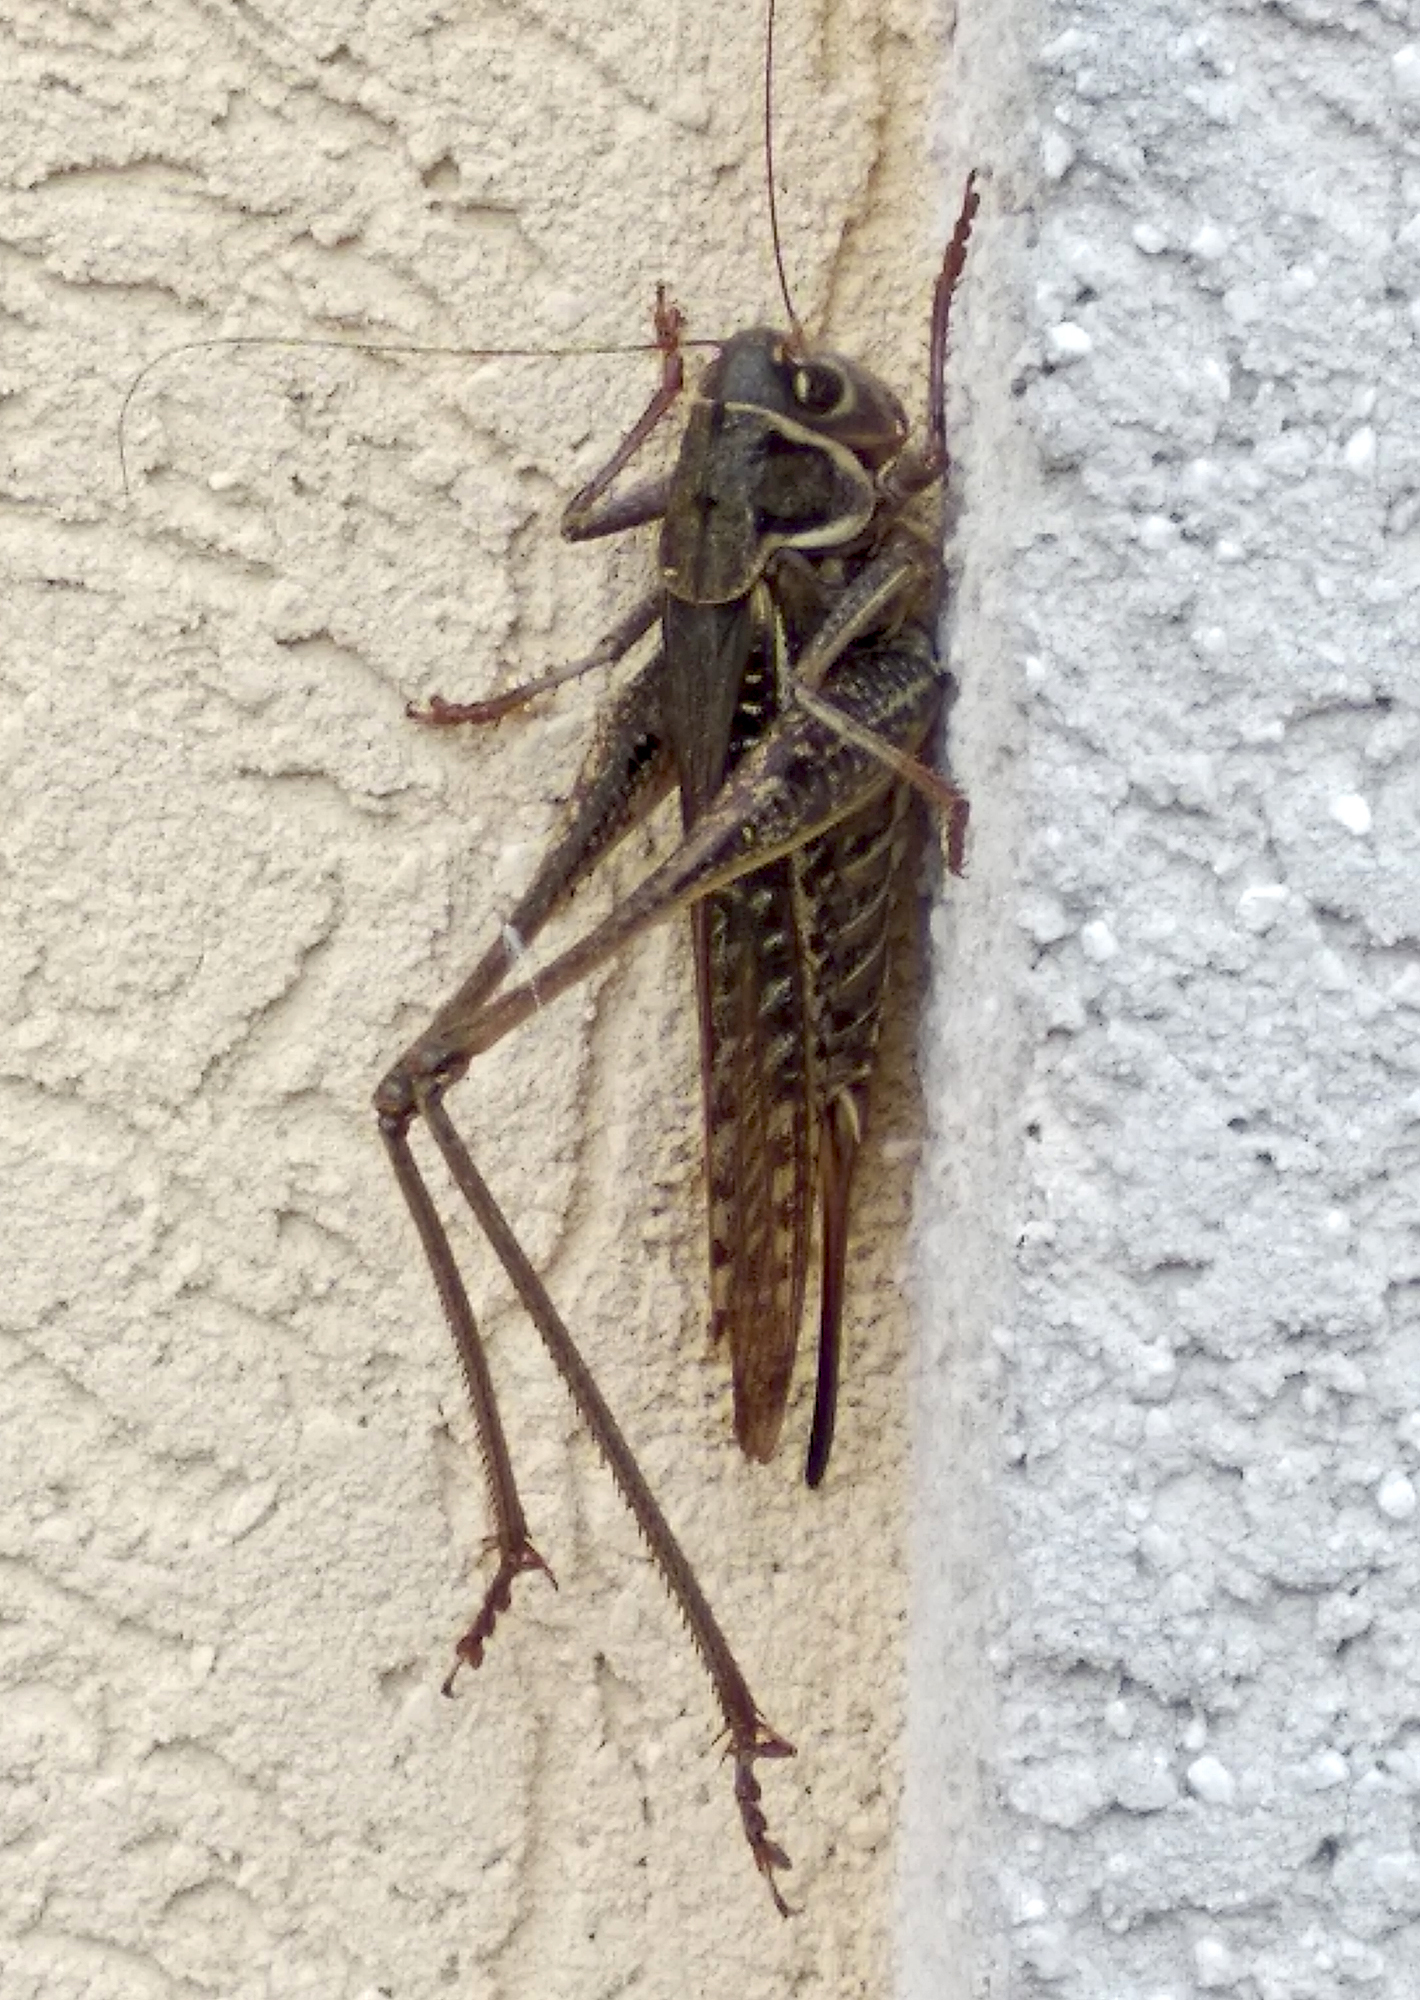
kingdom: Animalia
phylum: Arthropoda
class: Insecta
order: Orthoptera
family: Tettigoniidae
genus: Decticus
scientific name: Decticus albifrons
